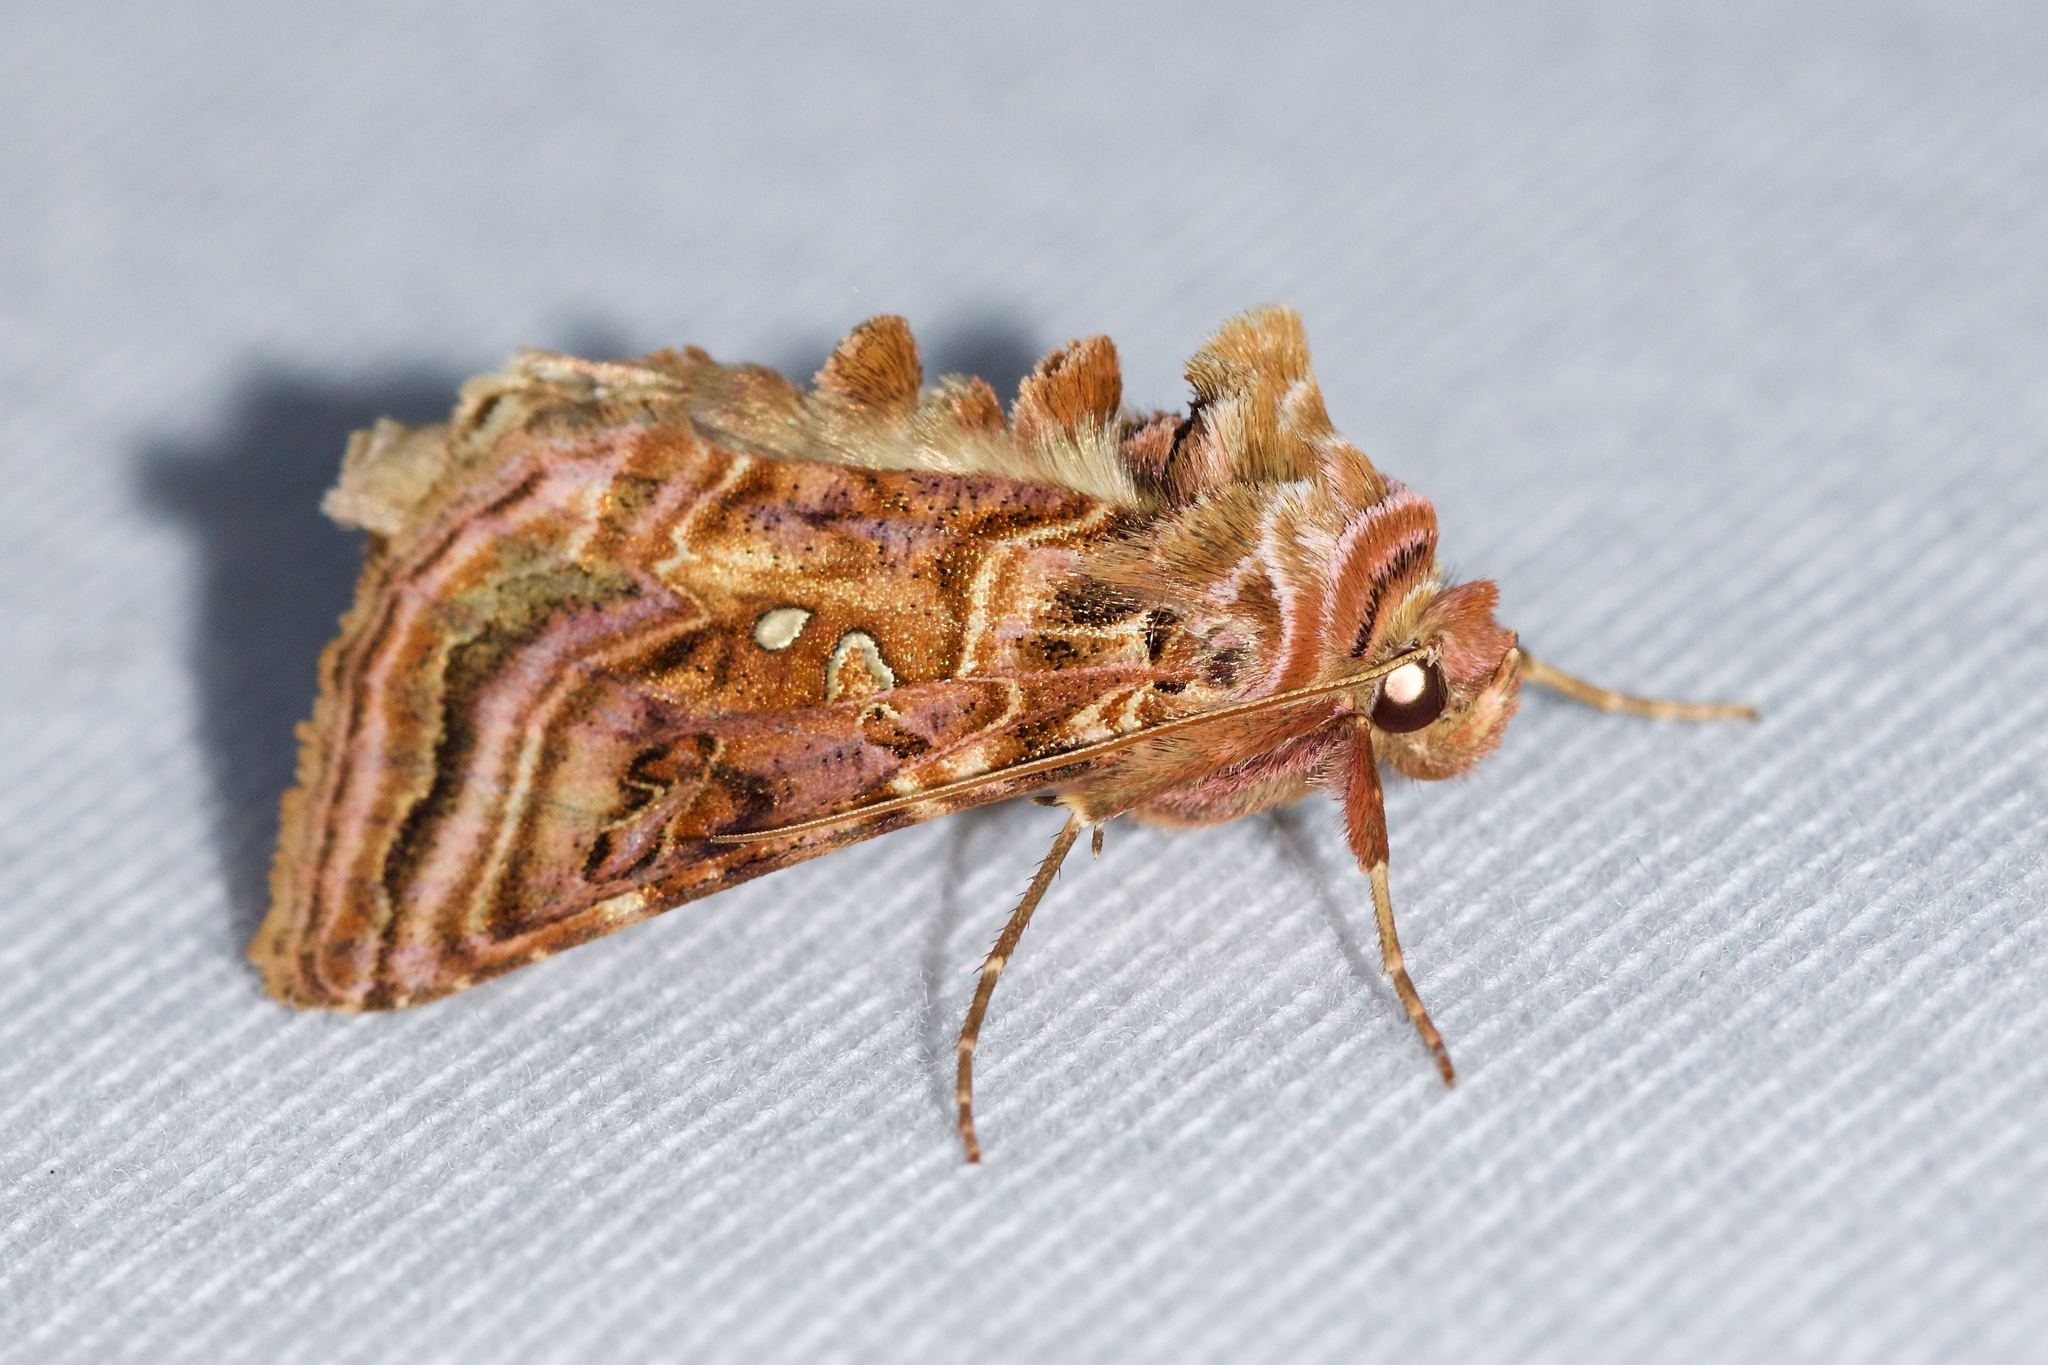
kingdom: Animalia
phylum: Arthropoda
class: Insecta
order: Lepidoptera
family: Noctuidae
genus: Autographa
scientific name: Autographa mappa
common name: Wavy chestnut y moth
